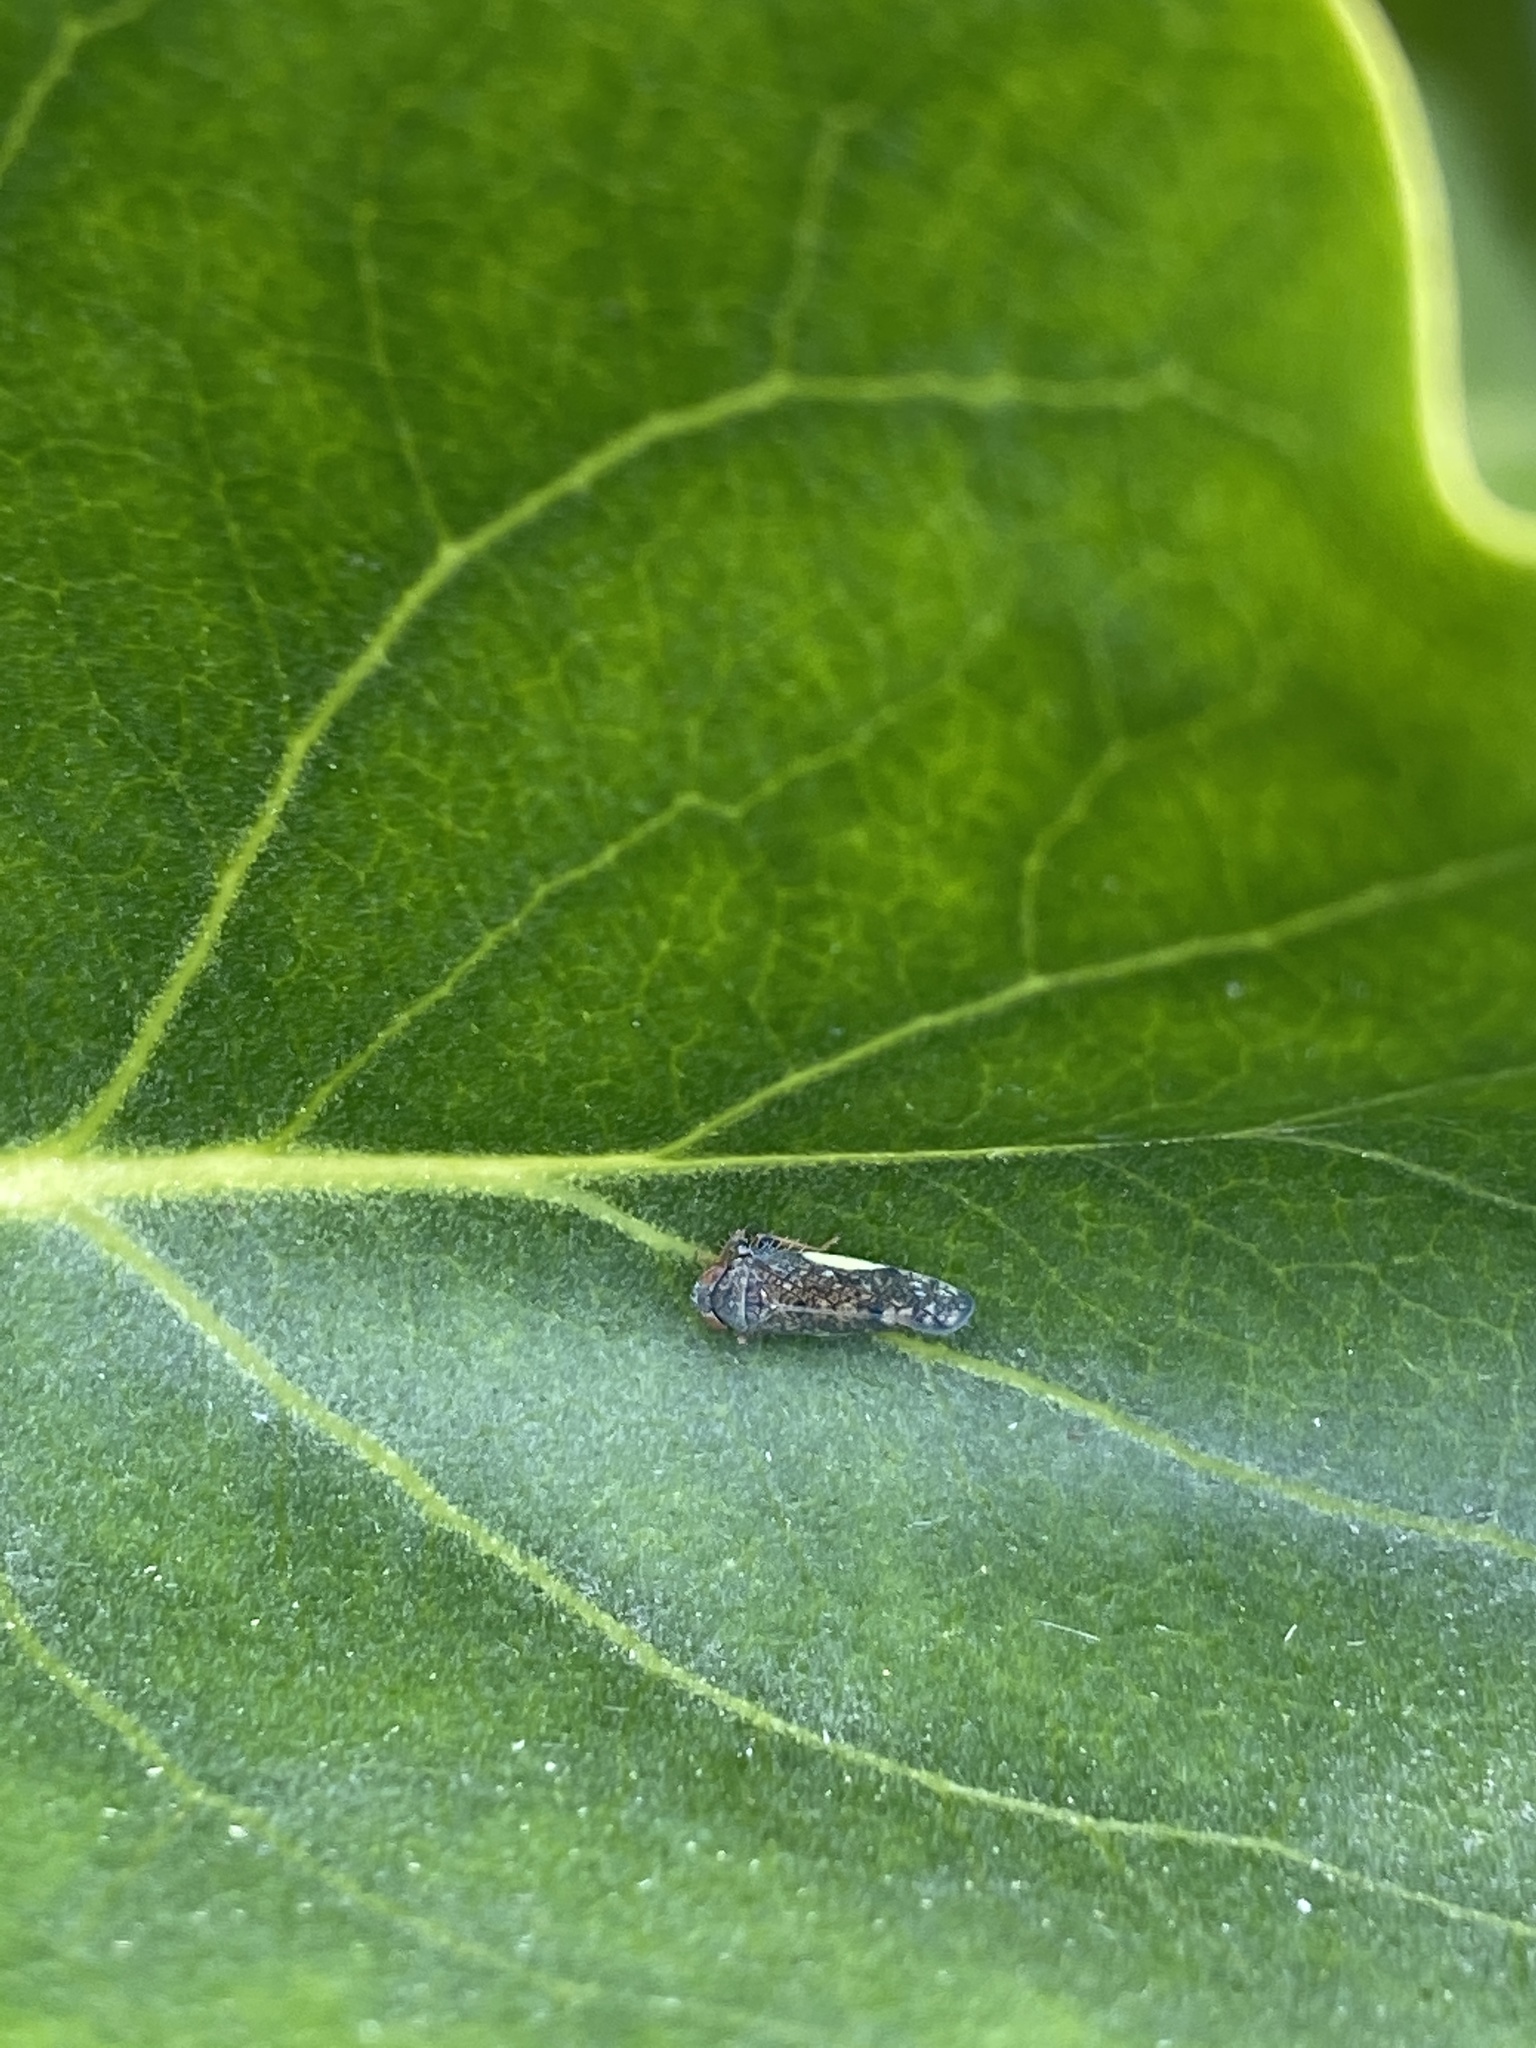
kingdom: Animalia
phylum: Arthropoda
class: Insecta
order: Hemiptera
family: Cicadellidae
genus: Orientus
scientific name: Orientus ishidae
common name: Japanese leafhopper
